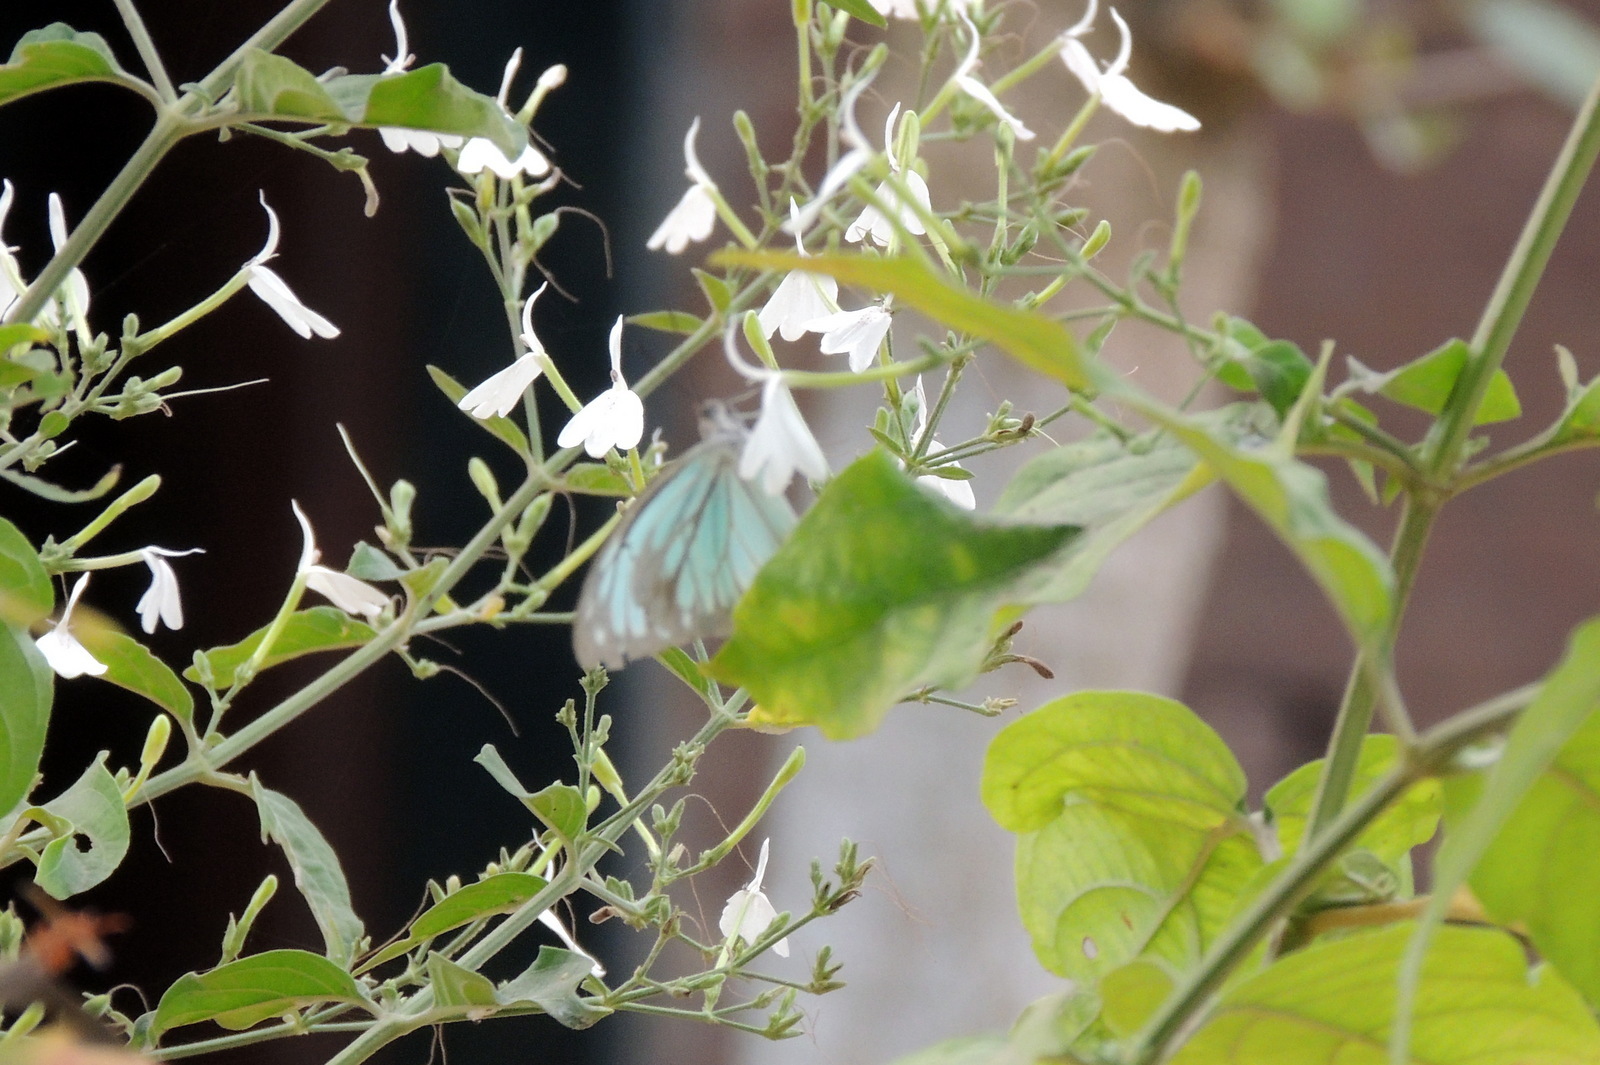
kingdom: Plantae
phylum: Tracheophyta
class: Magnoliopsida
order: Lamiales
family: Acanthaceae
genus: Rhinacanthus
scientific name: Rhinacanthus nasutus
